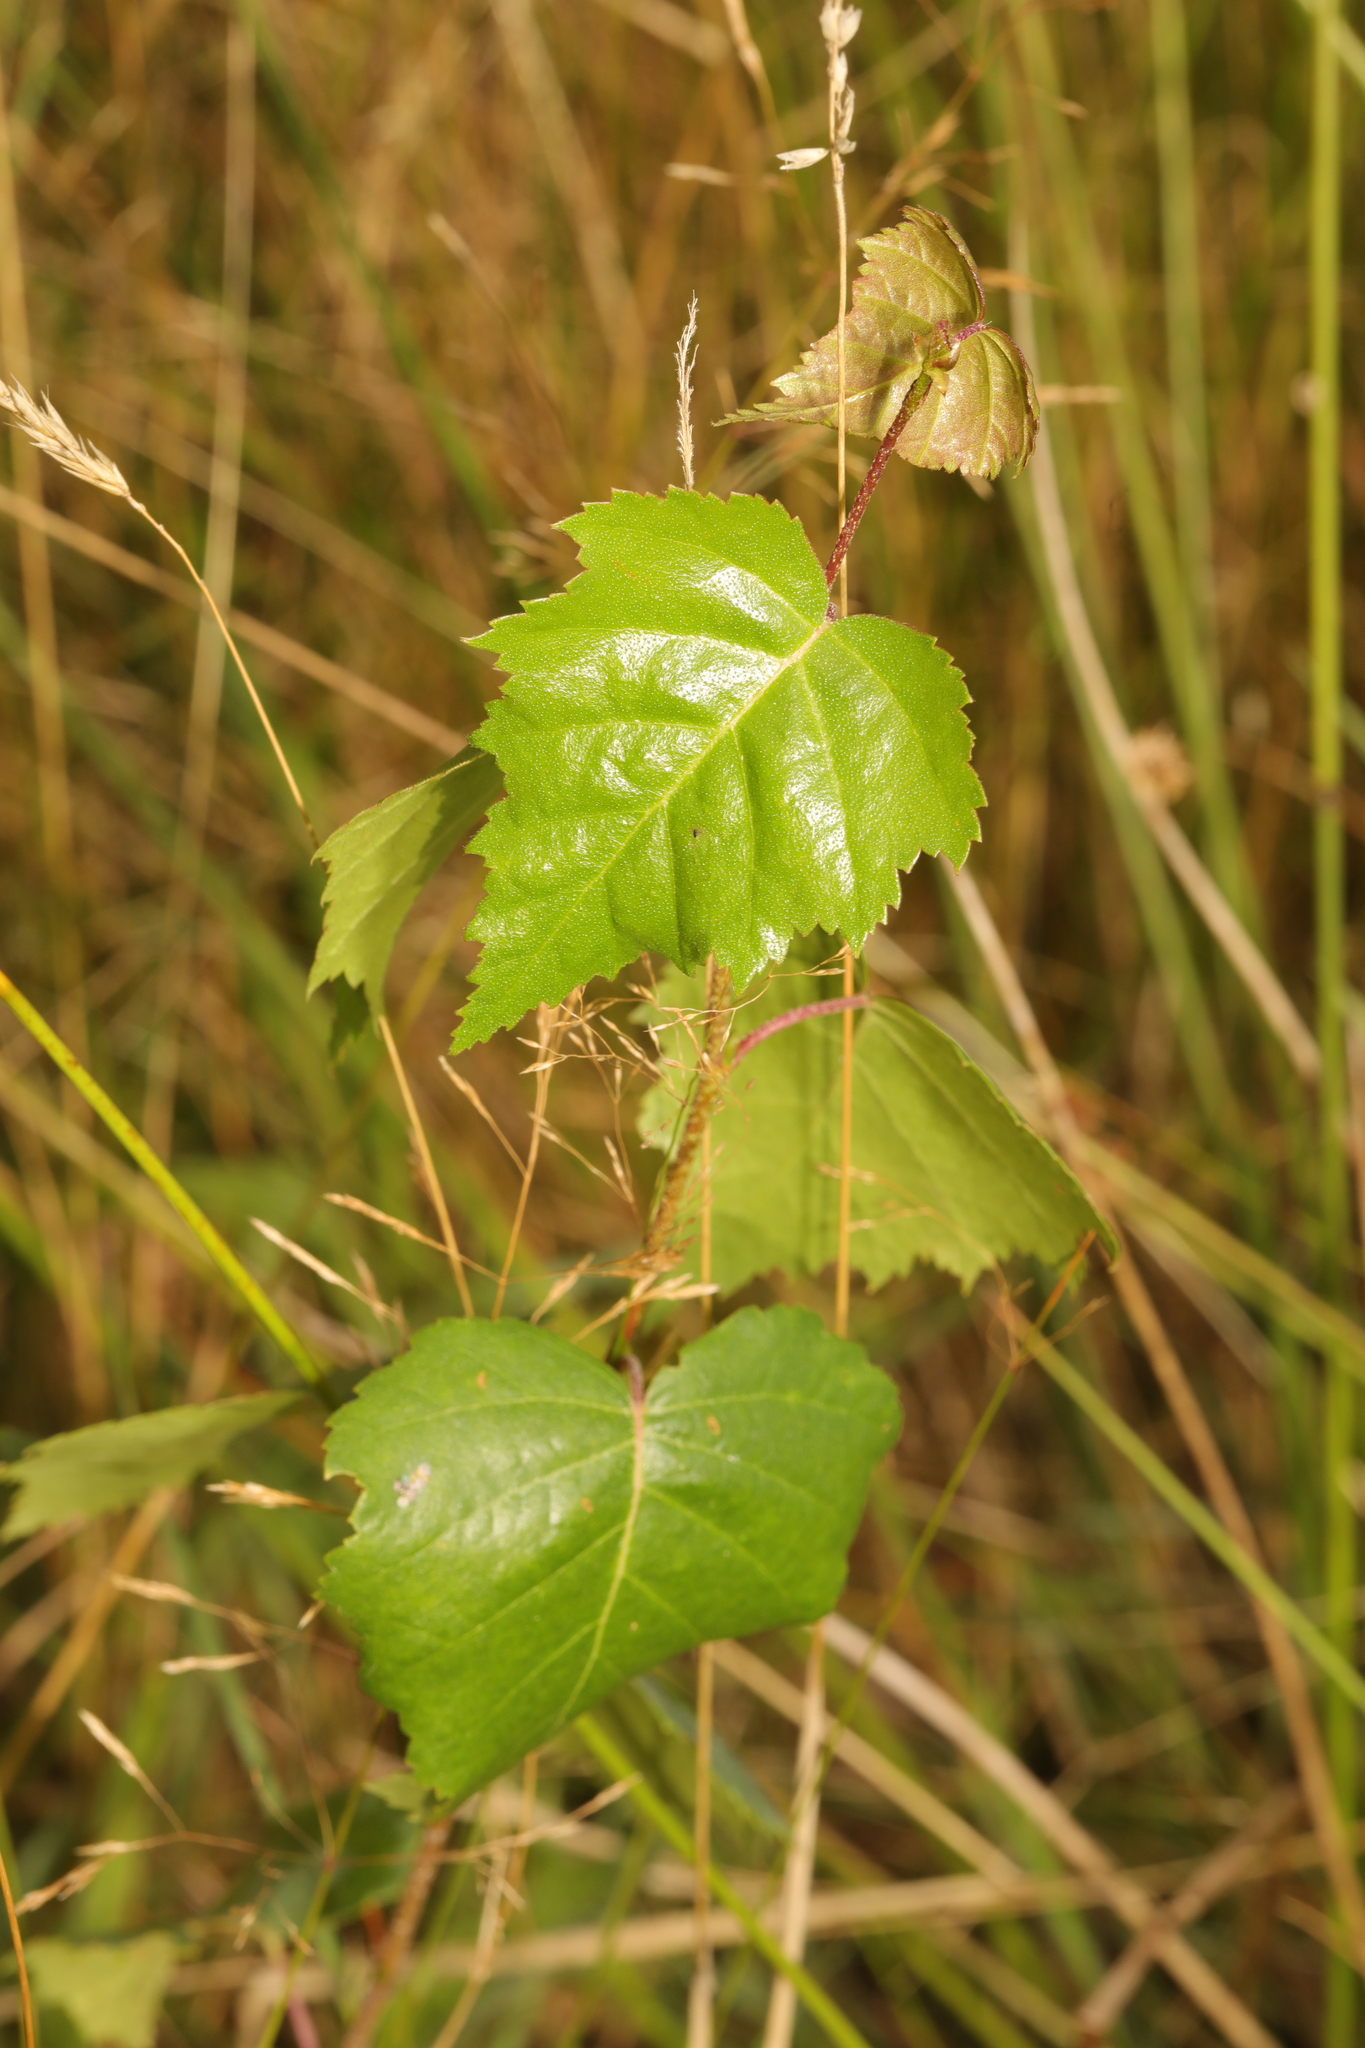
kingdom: Plantae
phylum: Tracheophyta
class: Magnoliopsida
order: Fagales
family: Betulaceae
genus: Betula
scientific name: Betula pendula
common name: Silver birch
